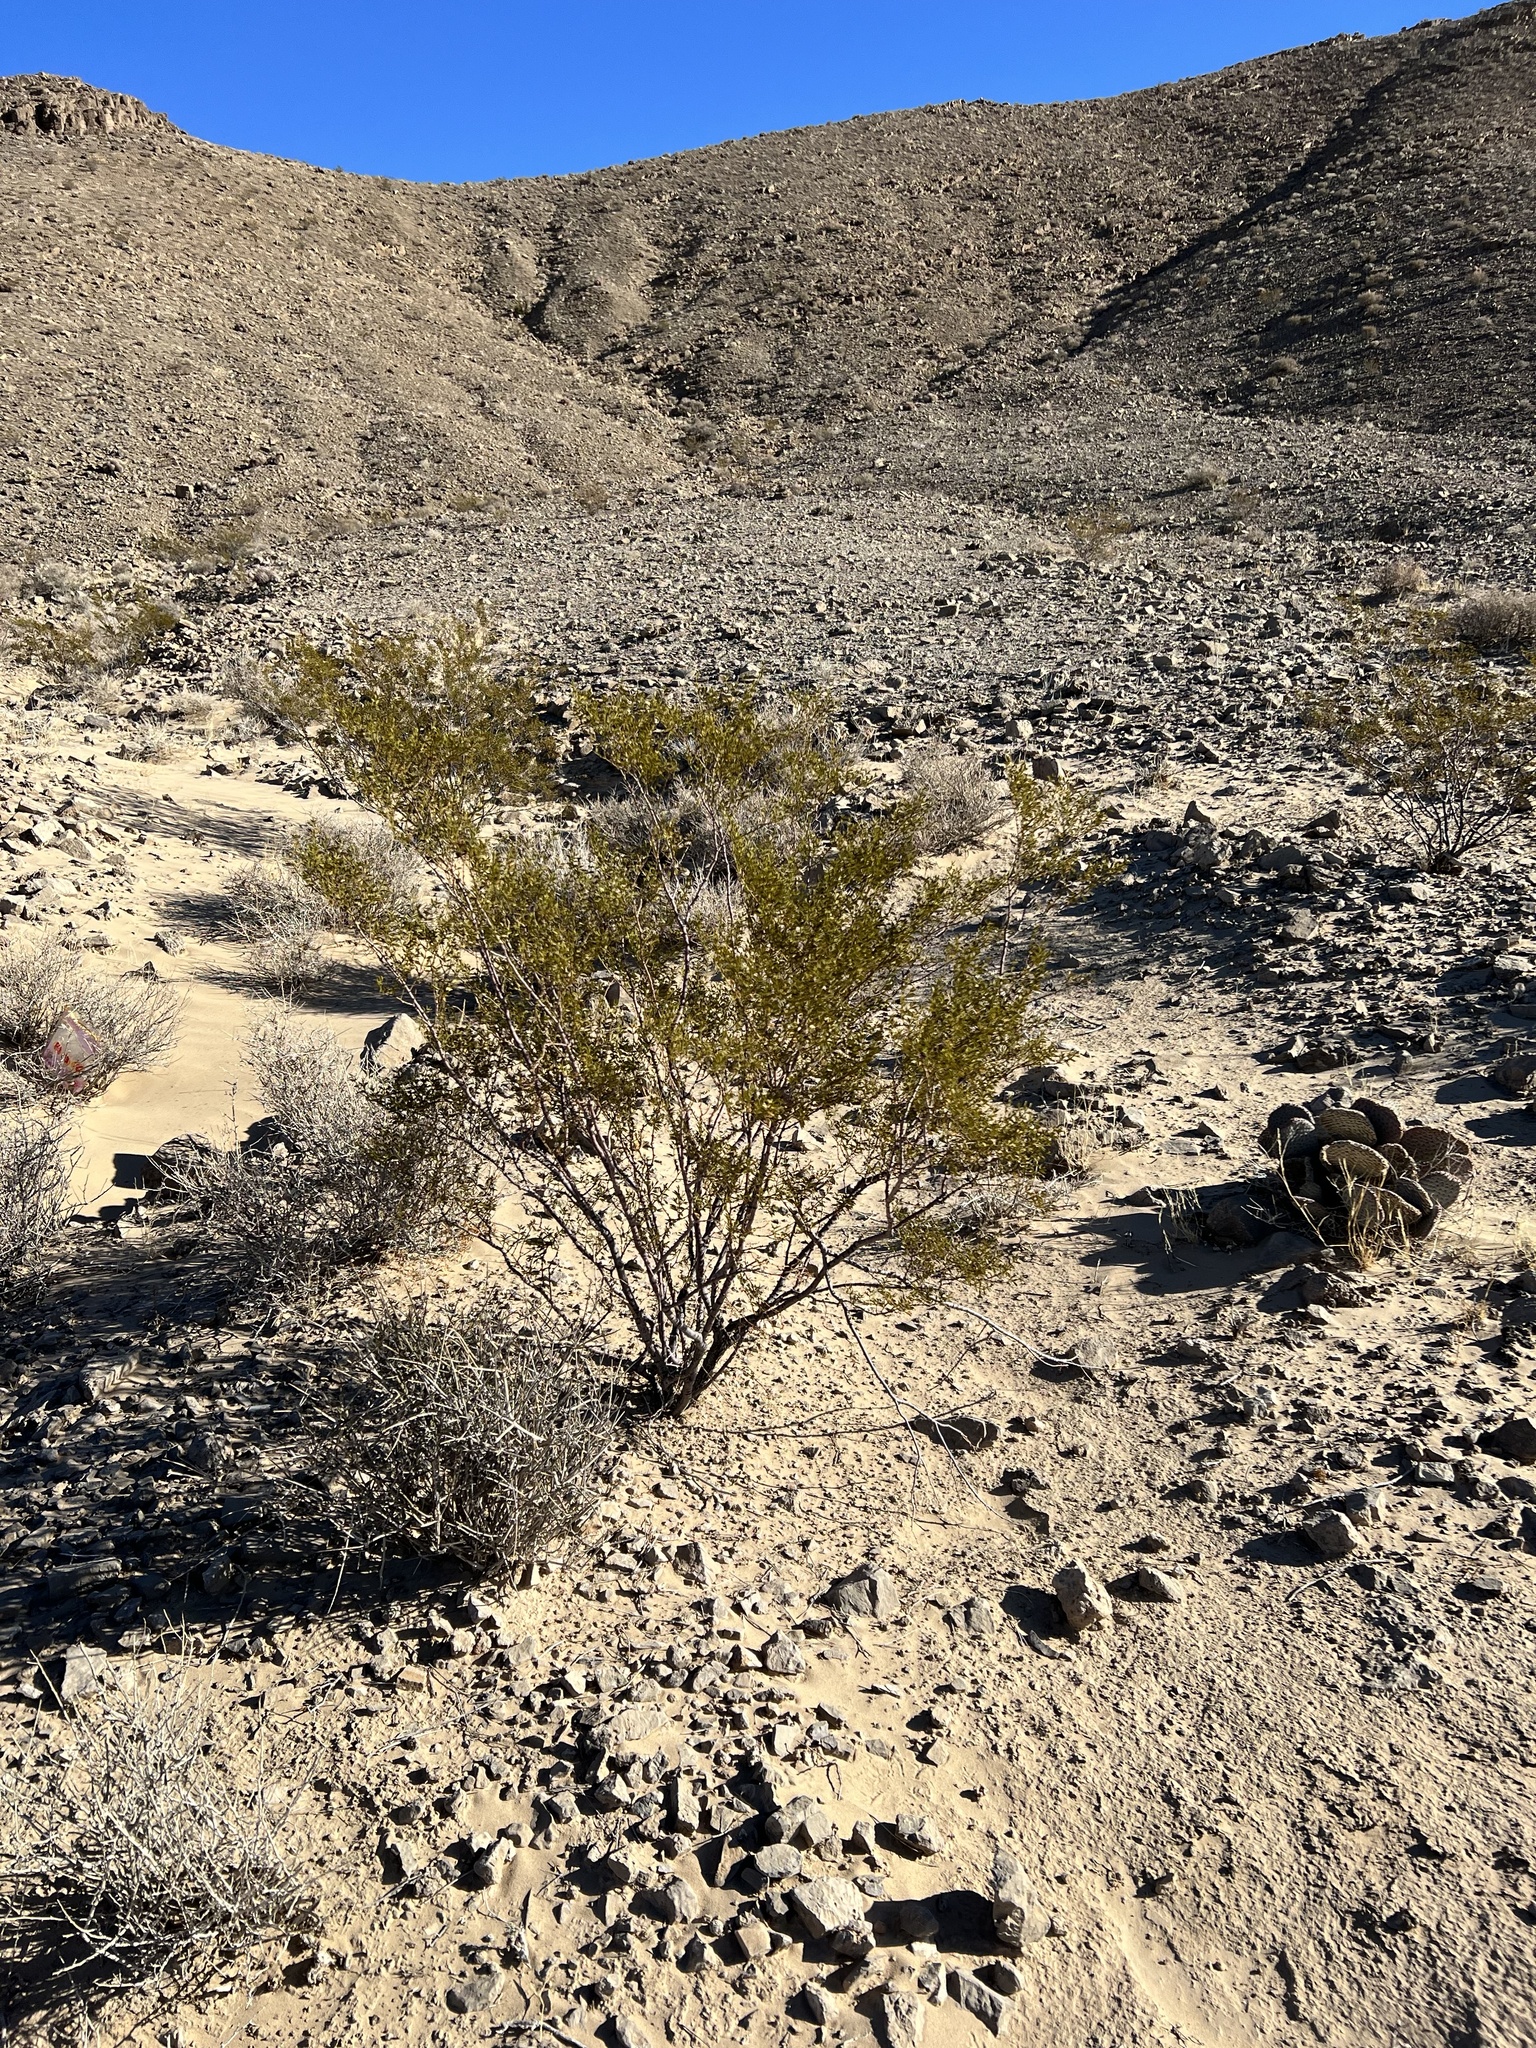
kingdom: Plantae
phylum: Tracheophyta
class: Magnoliopsida
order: Zygophyllales
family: Zygophyllaceae
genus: Larrea
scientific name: Larrea tridentata
